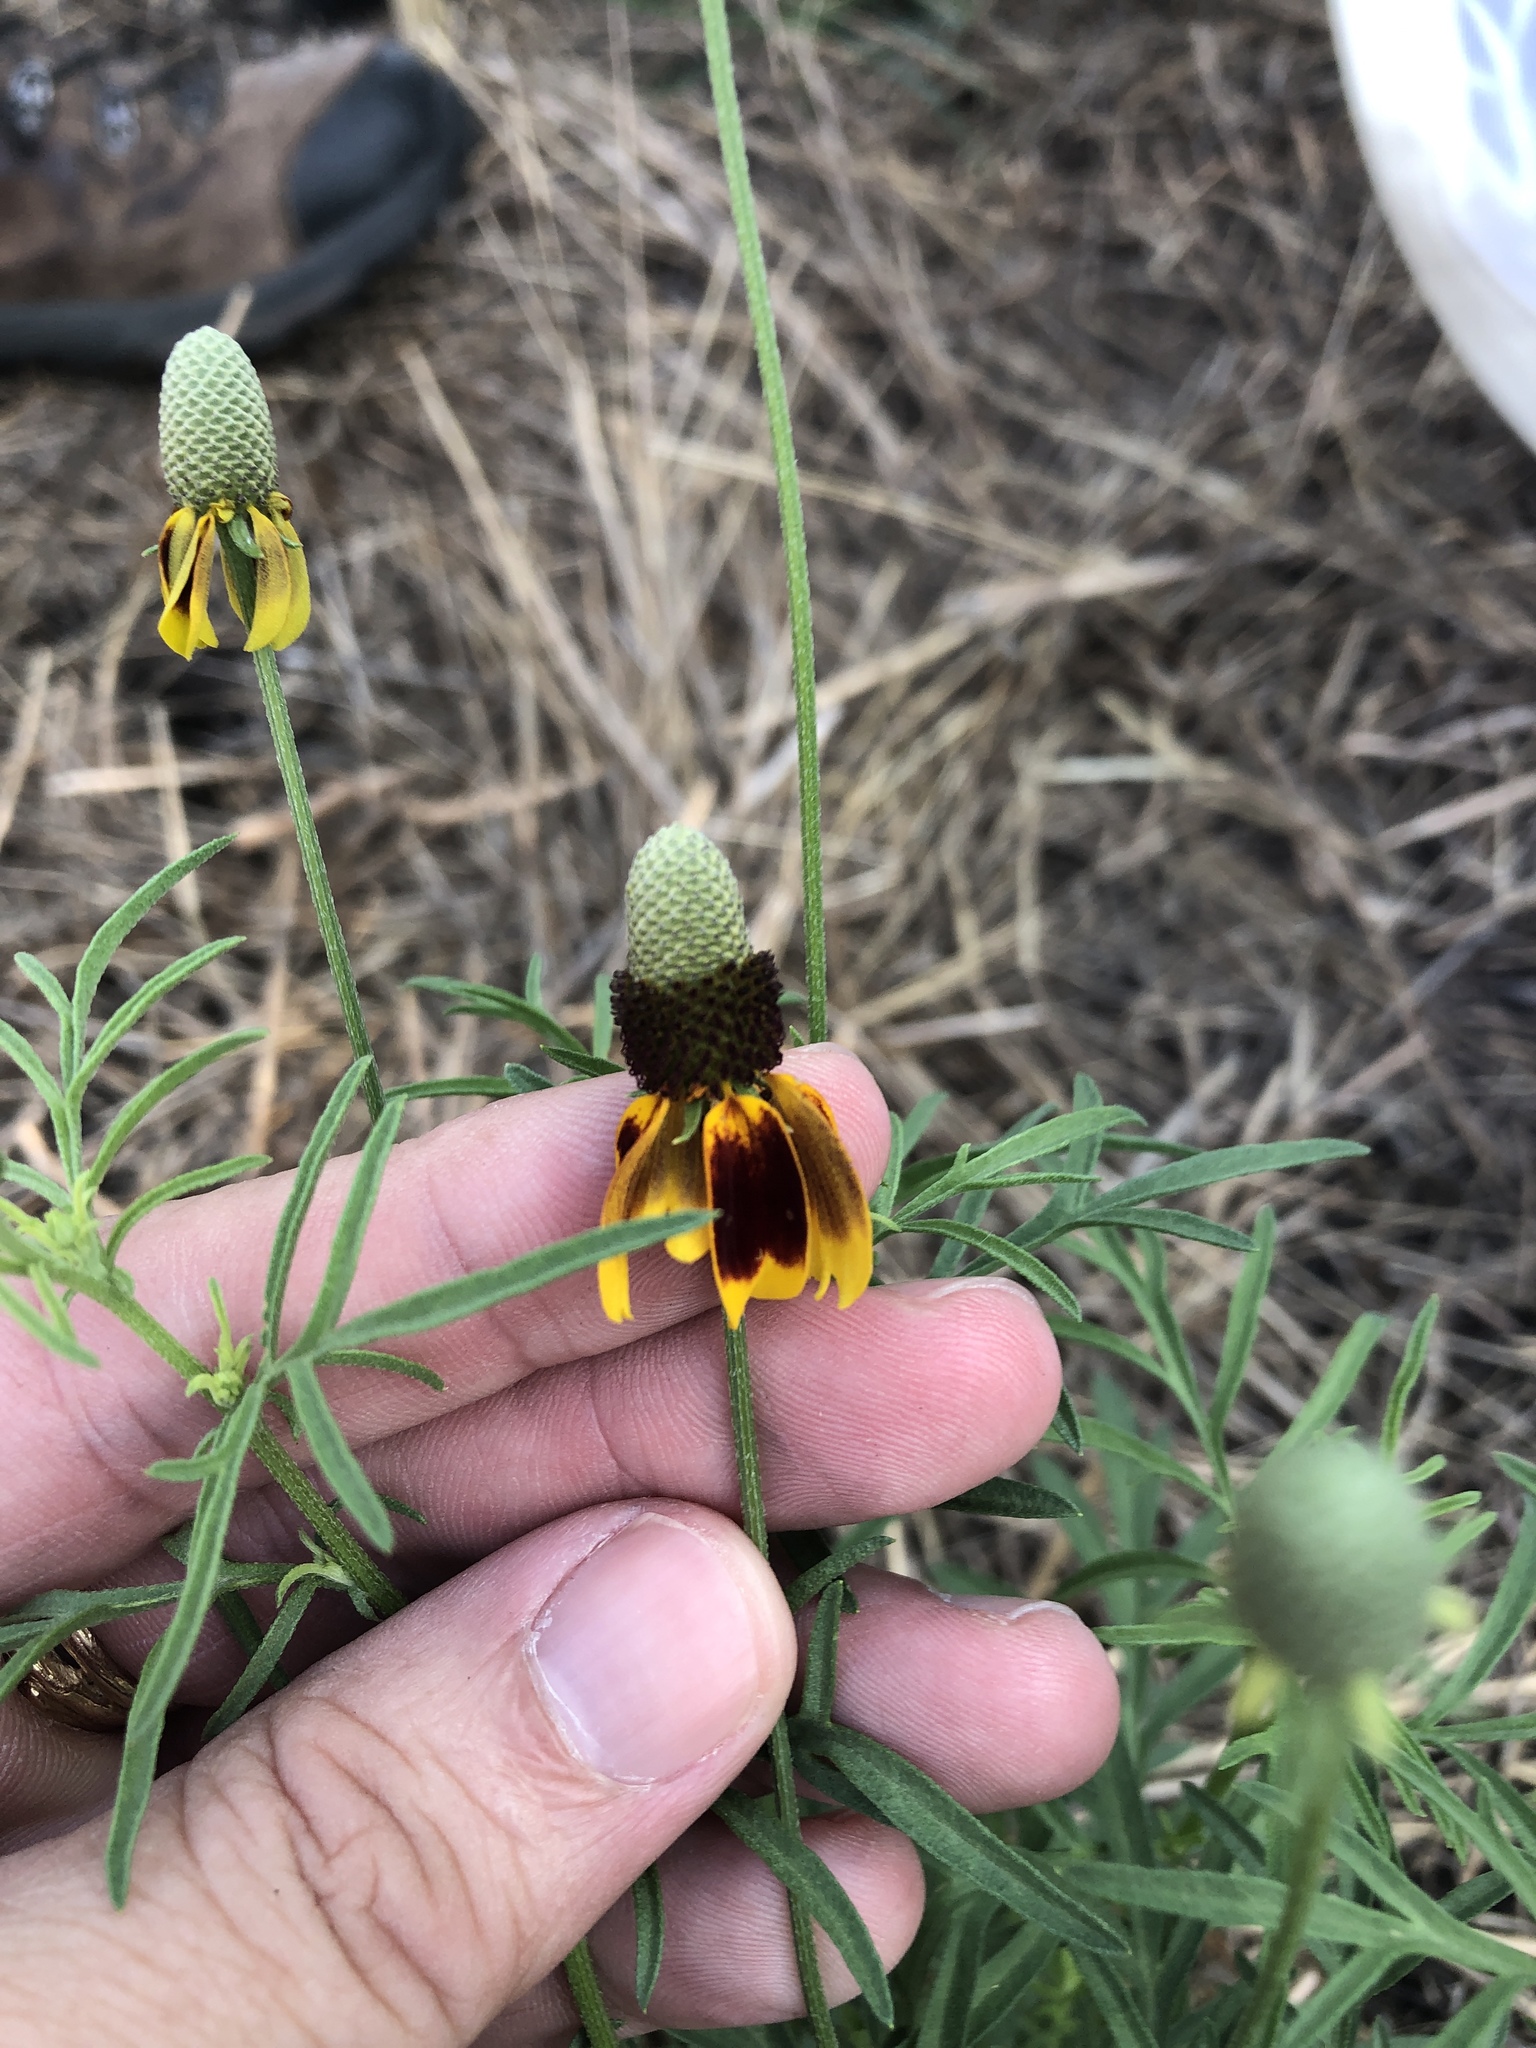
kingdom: Plantae
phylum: Tracheophyta
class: Magnoliopsida
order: Asterales
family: Asteraceae
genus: Ratibida
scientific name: Ratibida columnifera
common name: Prairie coneflower
